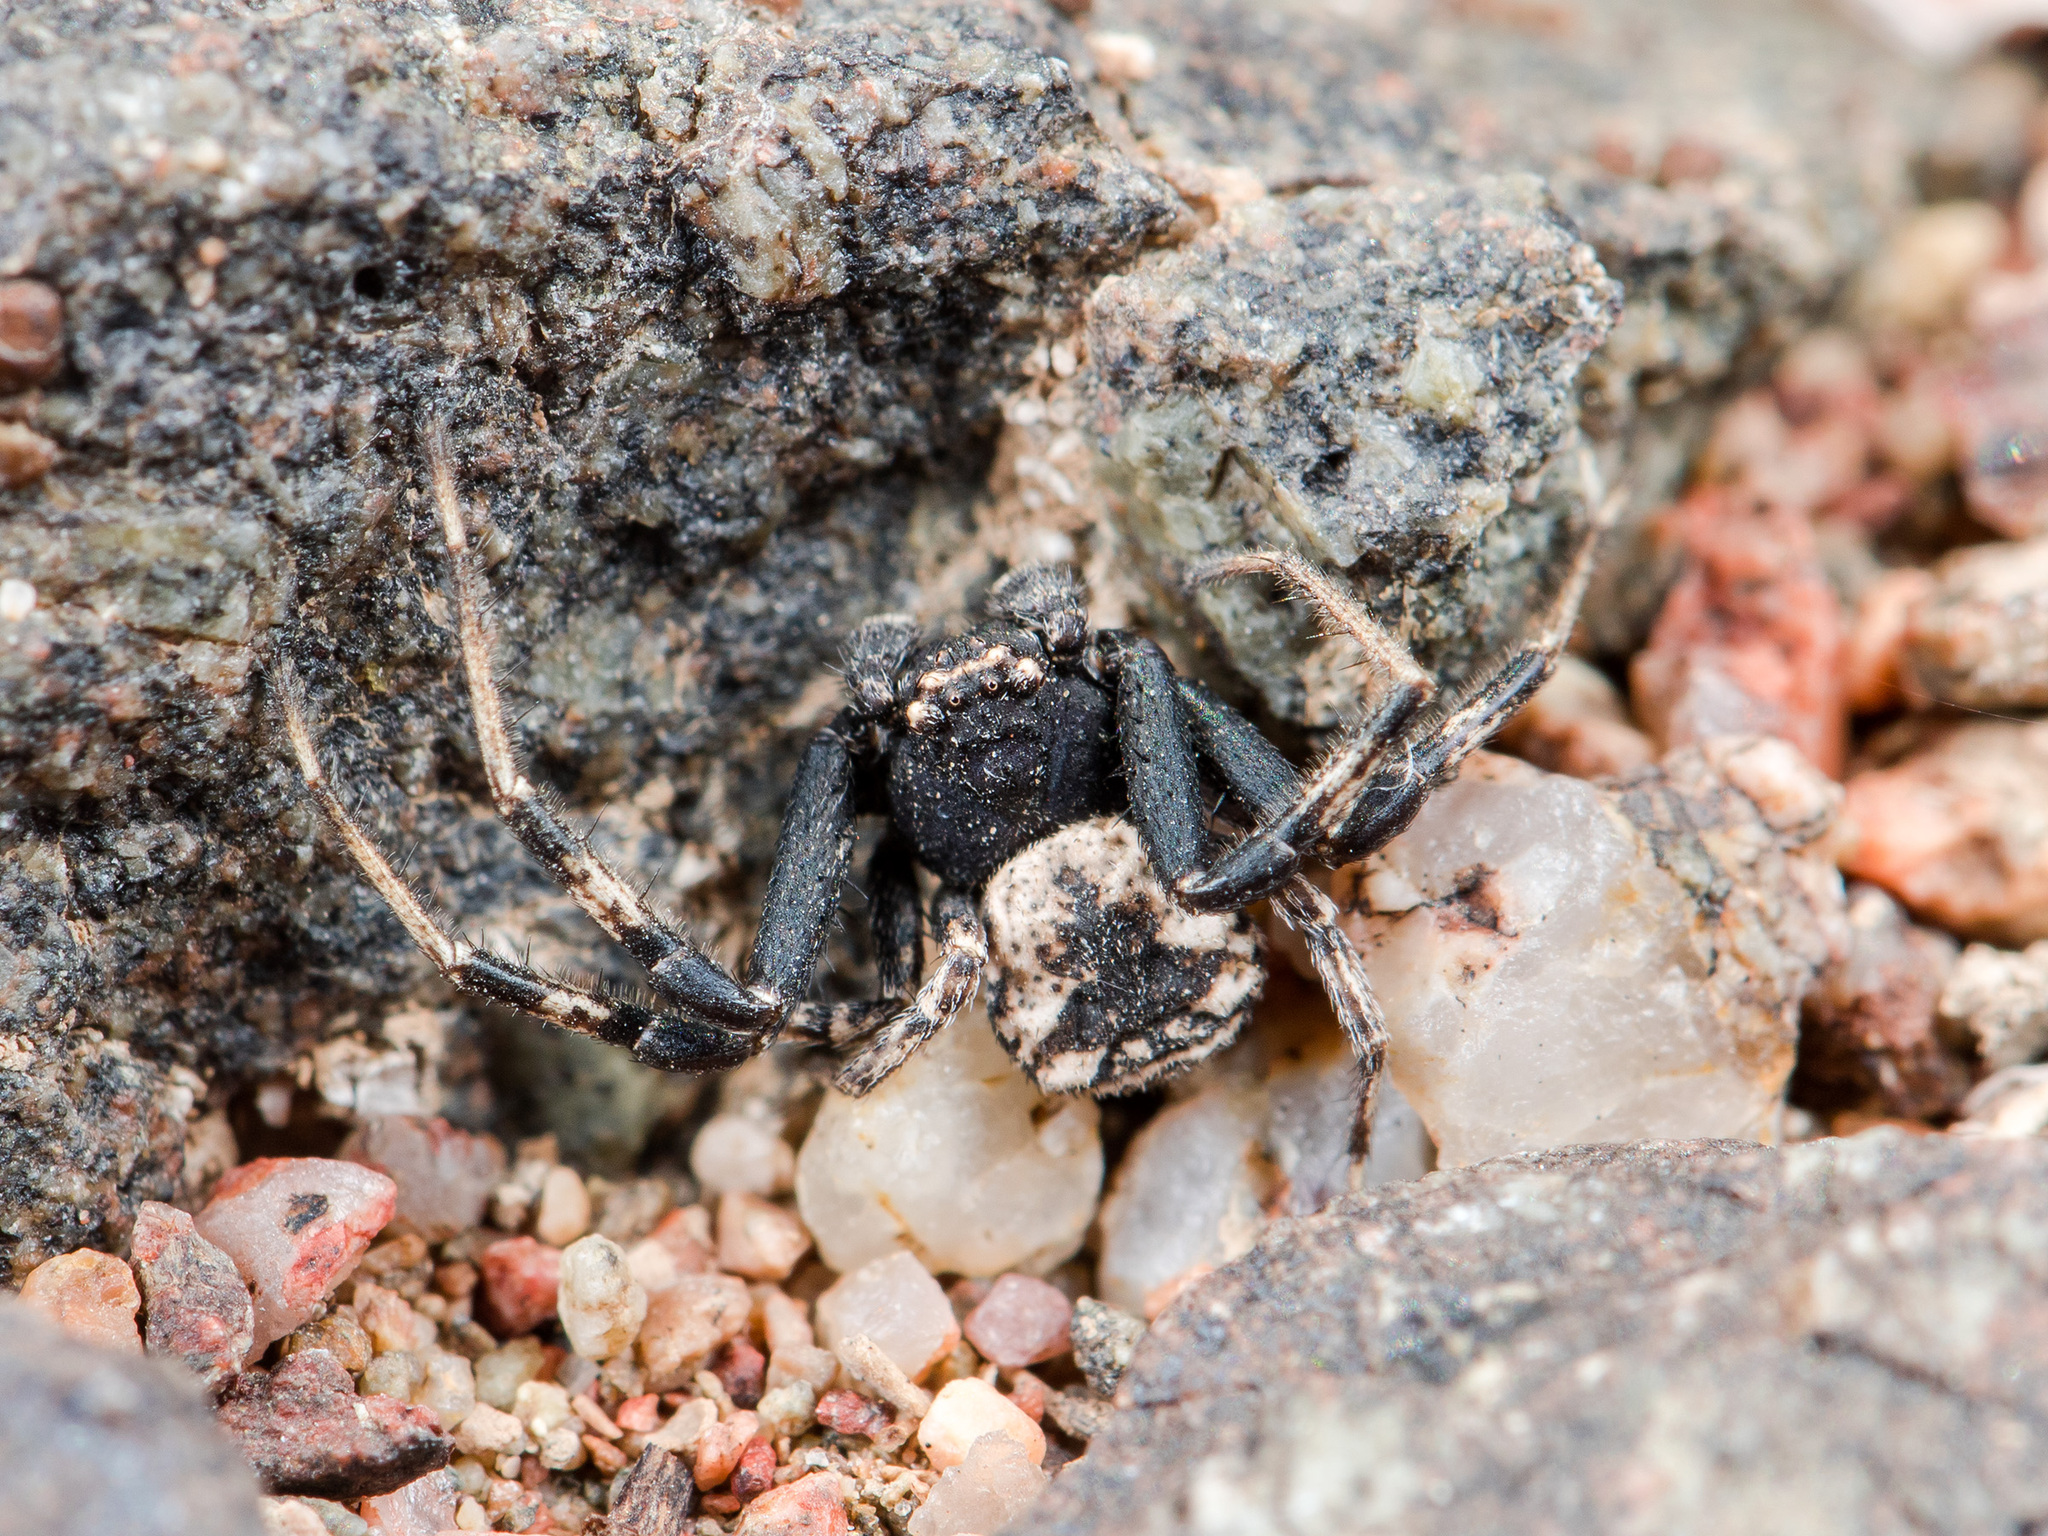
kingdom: Animalia
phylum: Arthropoda
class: Arachnida
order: Araneae
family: Thomisidae
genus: Ozyptila
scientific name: Ozyptila tuberosa
